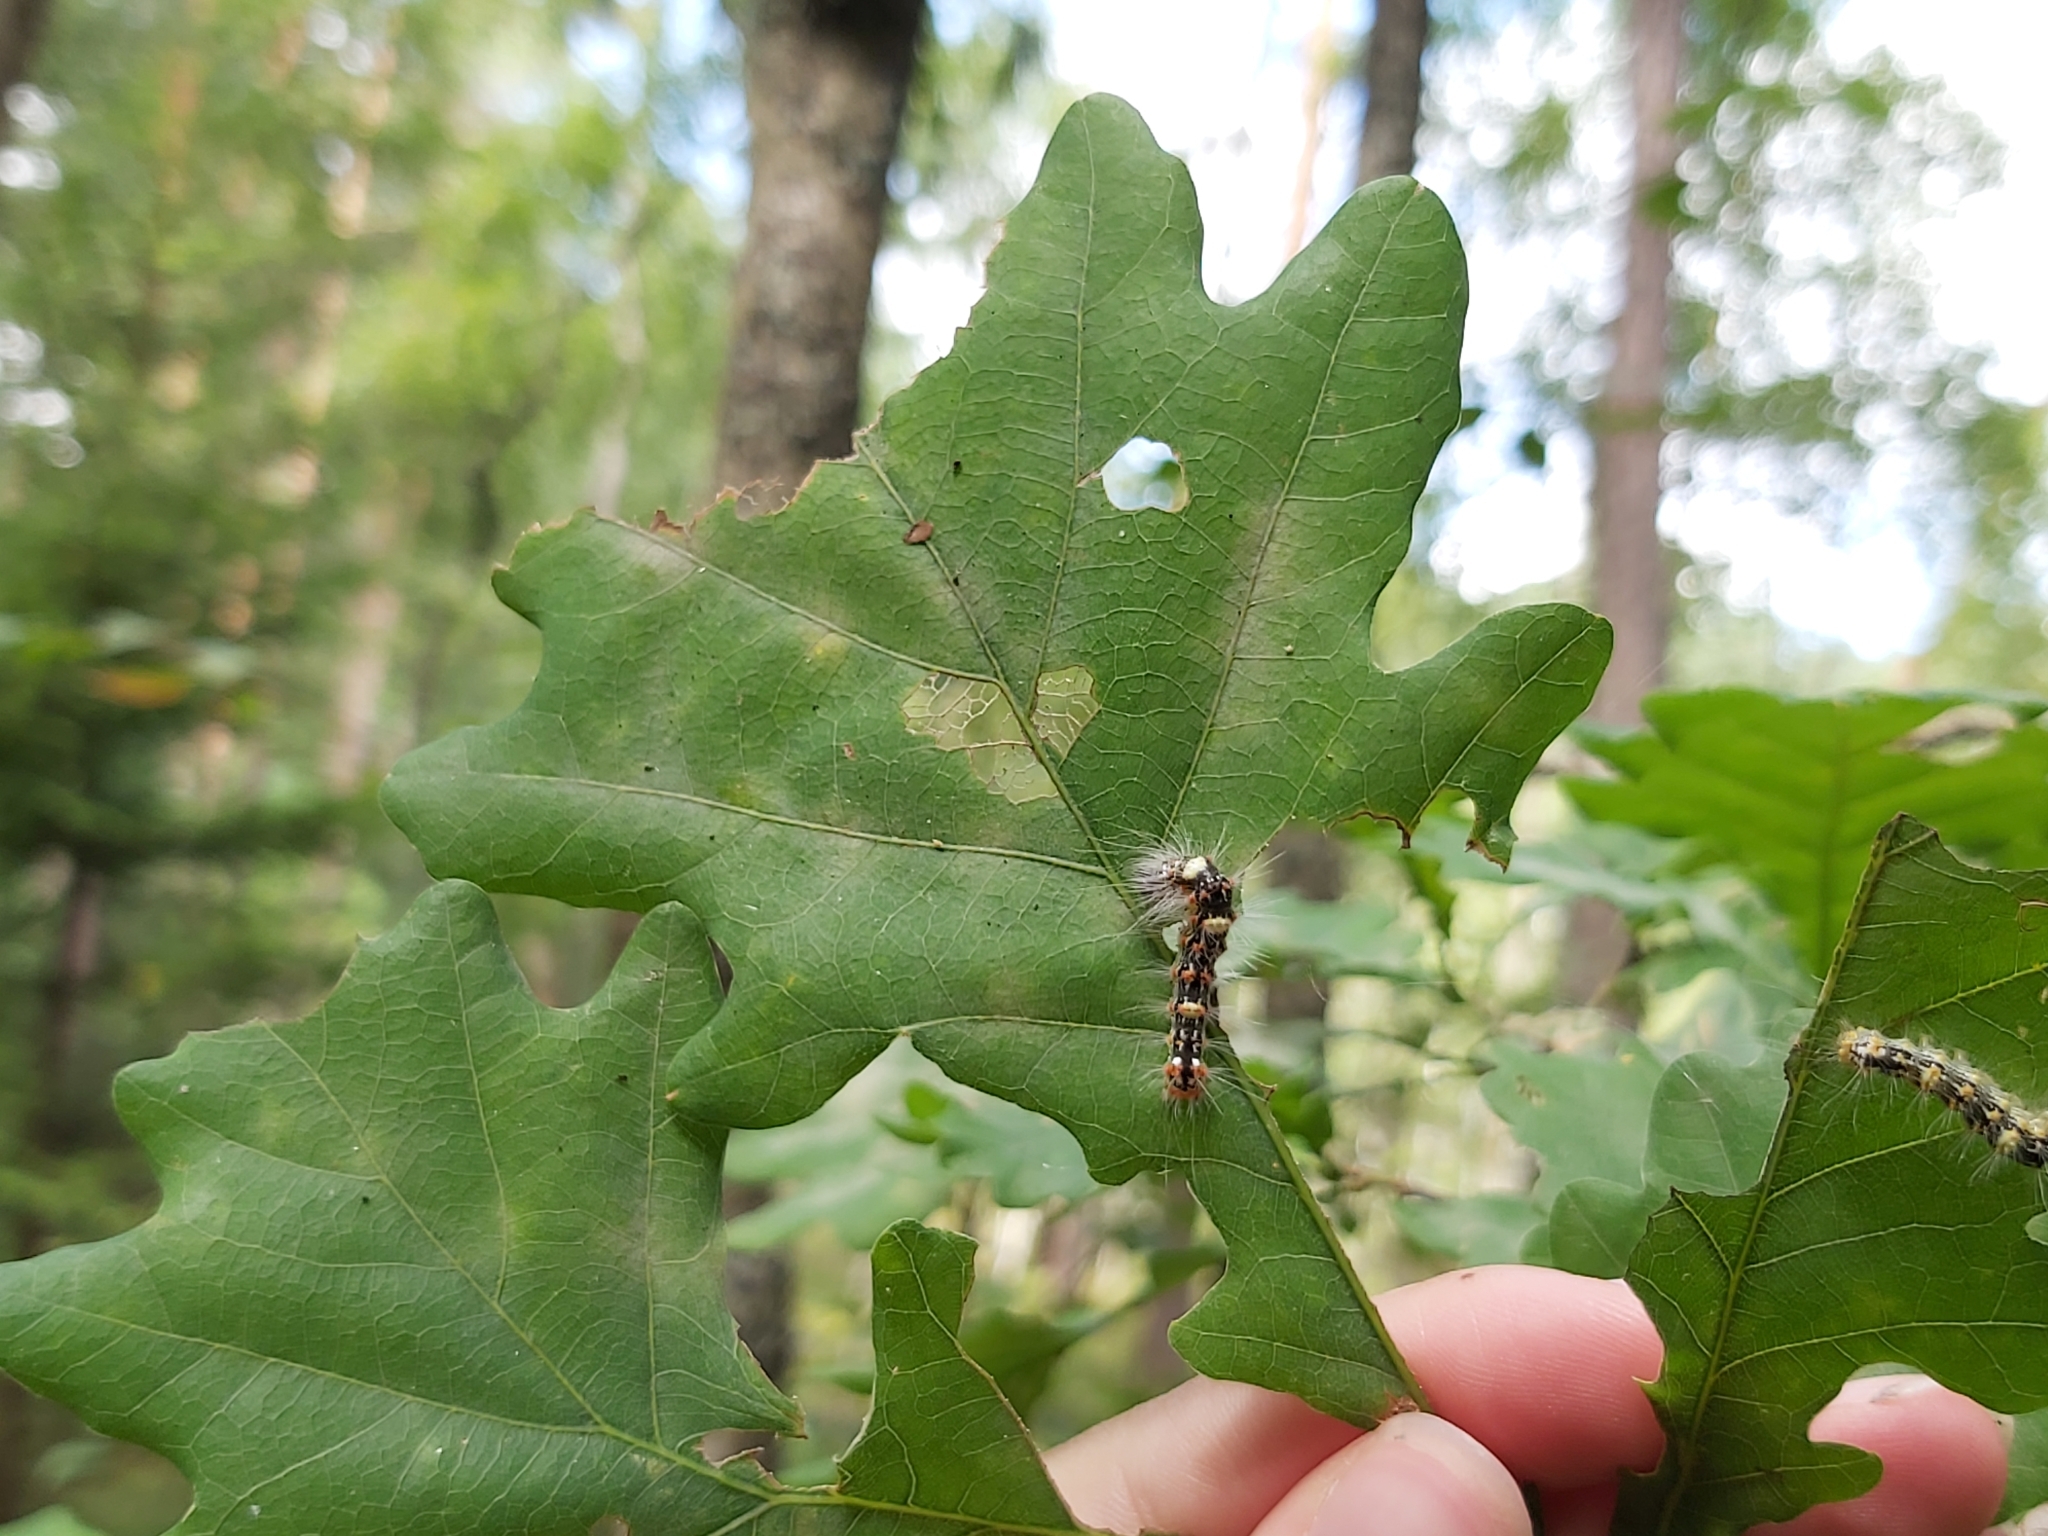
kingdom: Animalia
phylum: Arthropoda
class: Insecta
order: Lepidoptera
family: Noctuidae
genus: Moma
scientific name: Moma alpium
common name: Scarce merveille du jour
